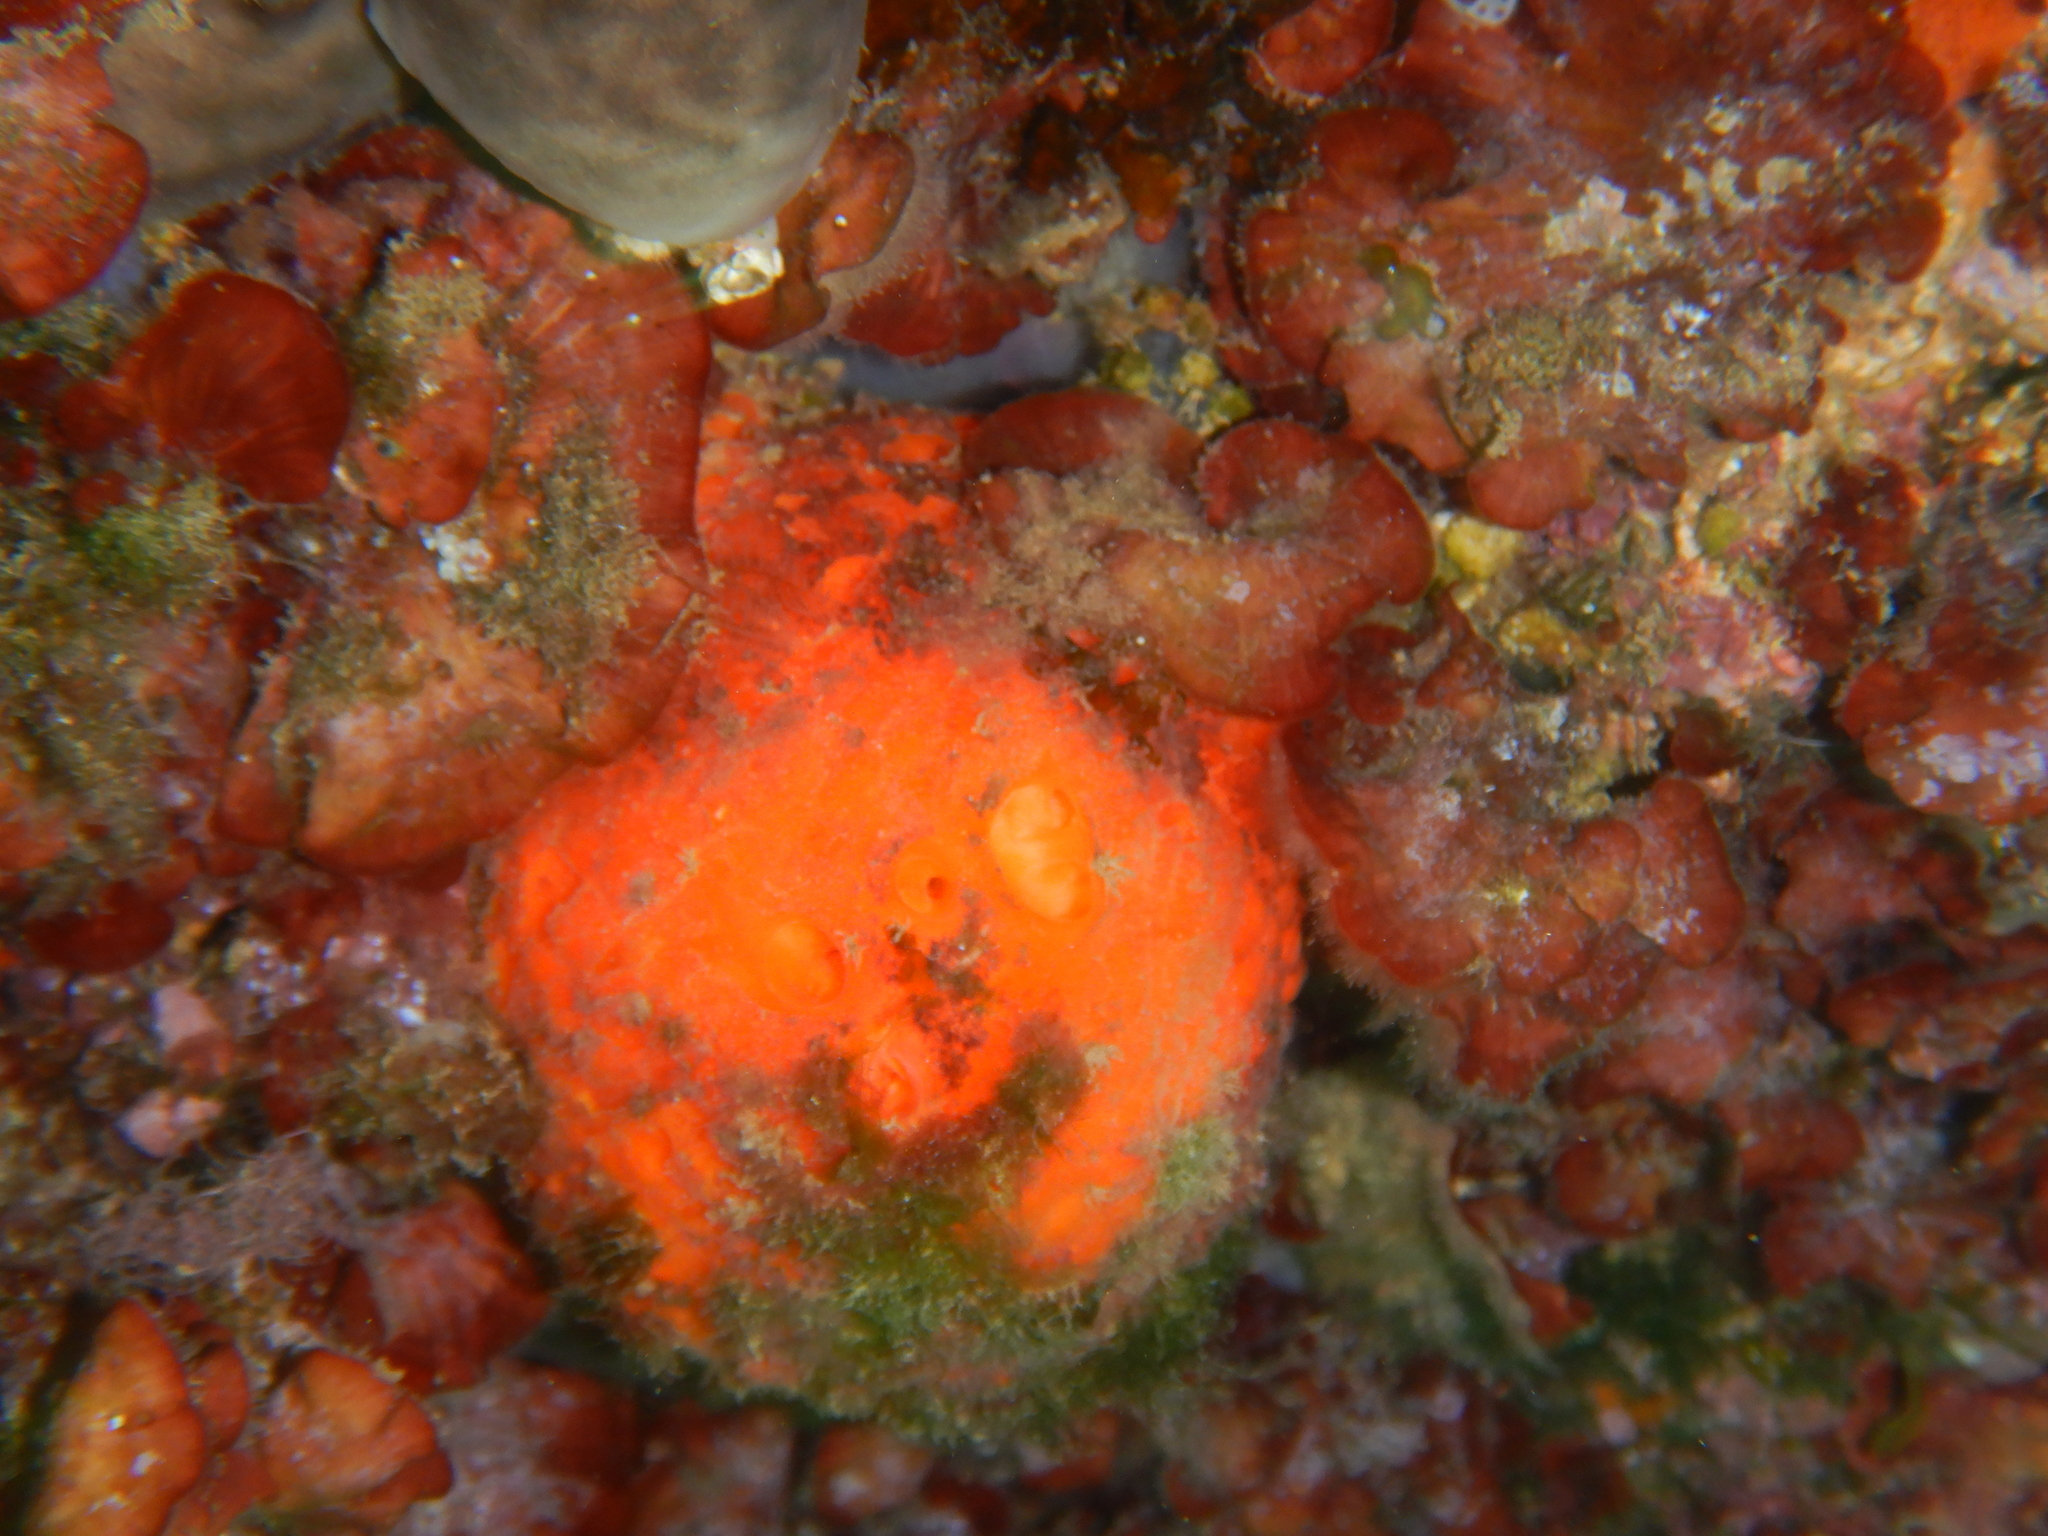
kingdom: Animalia
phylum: Porifera
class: Demospongiae
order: Tethyida
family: Tethyidae
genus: Tethya
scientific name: Tethya aurantium
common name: Golf ball sponge
